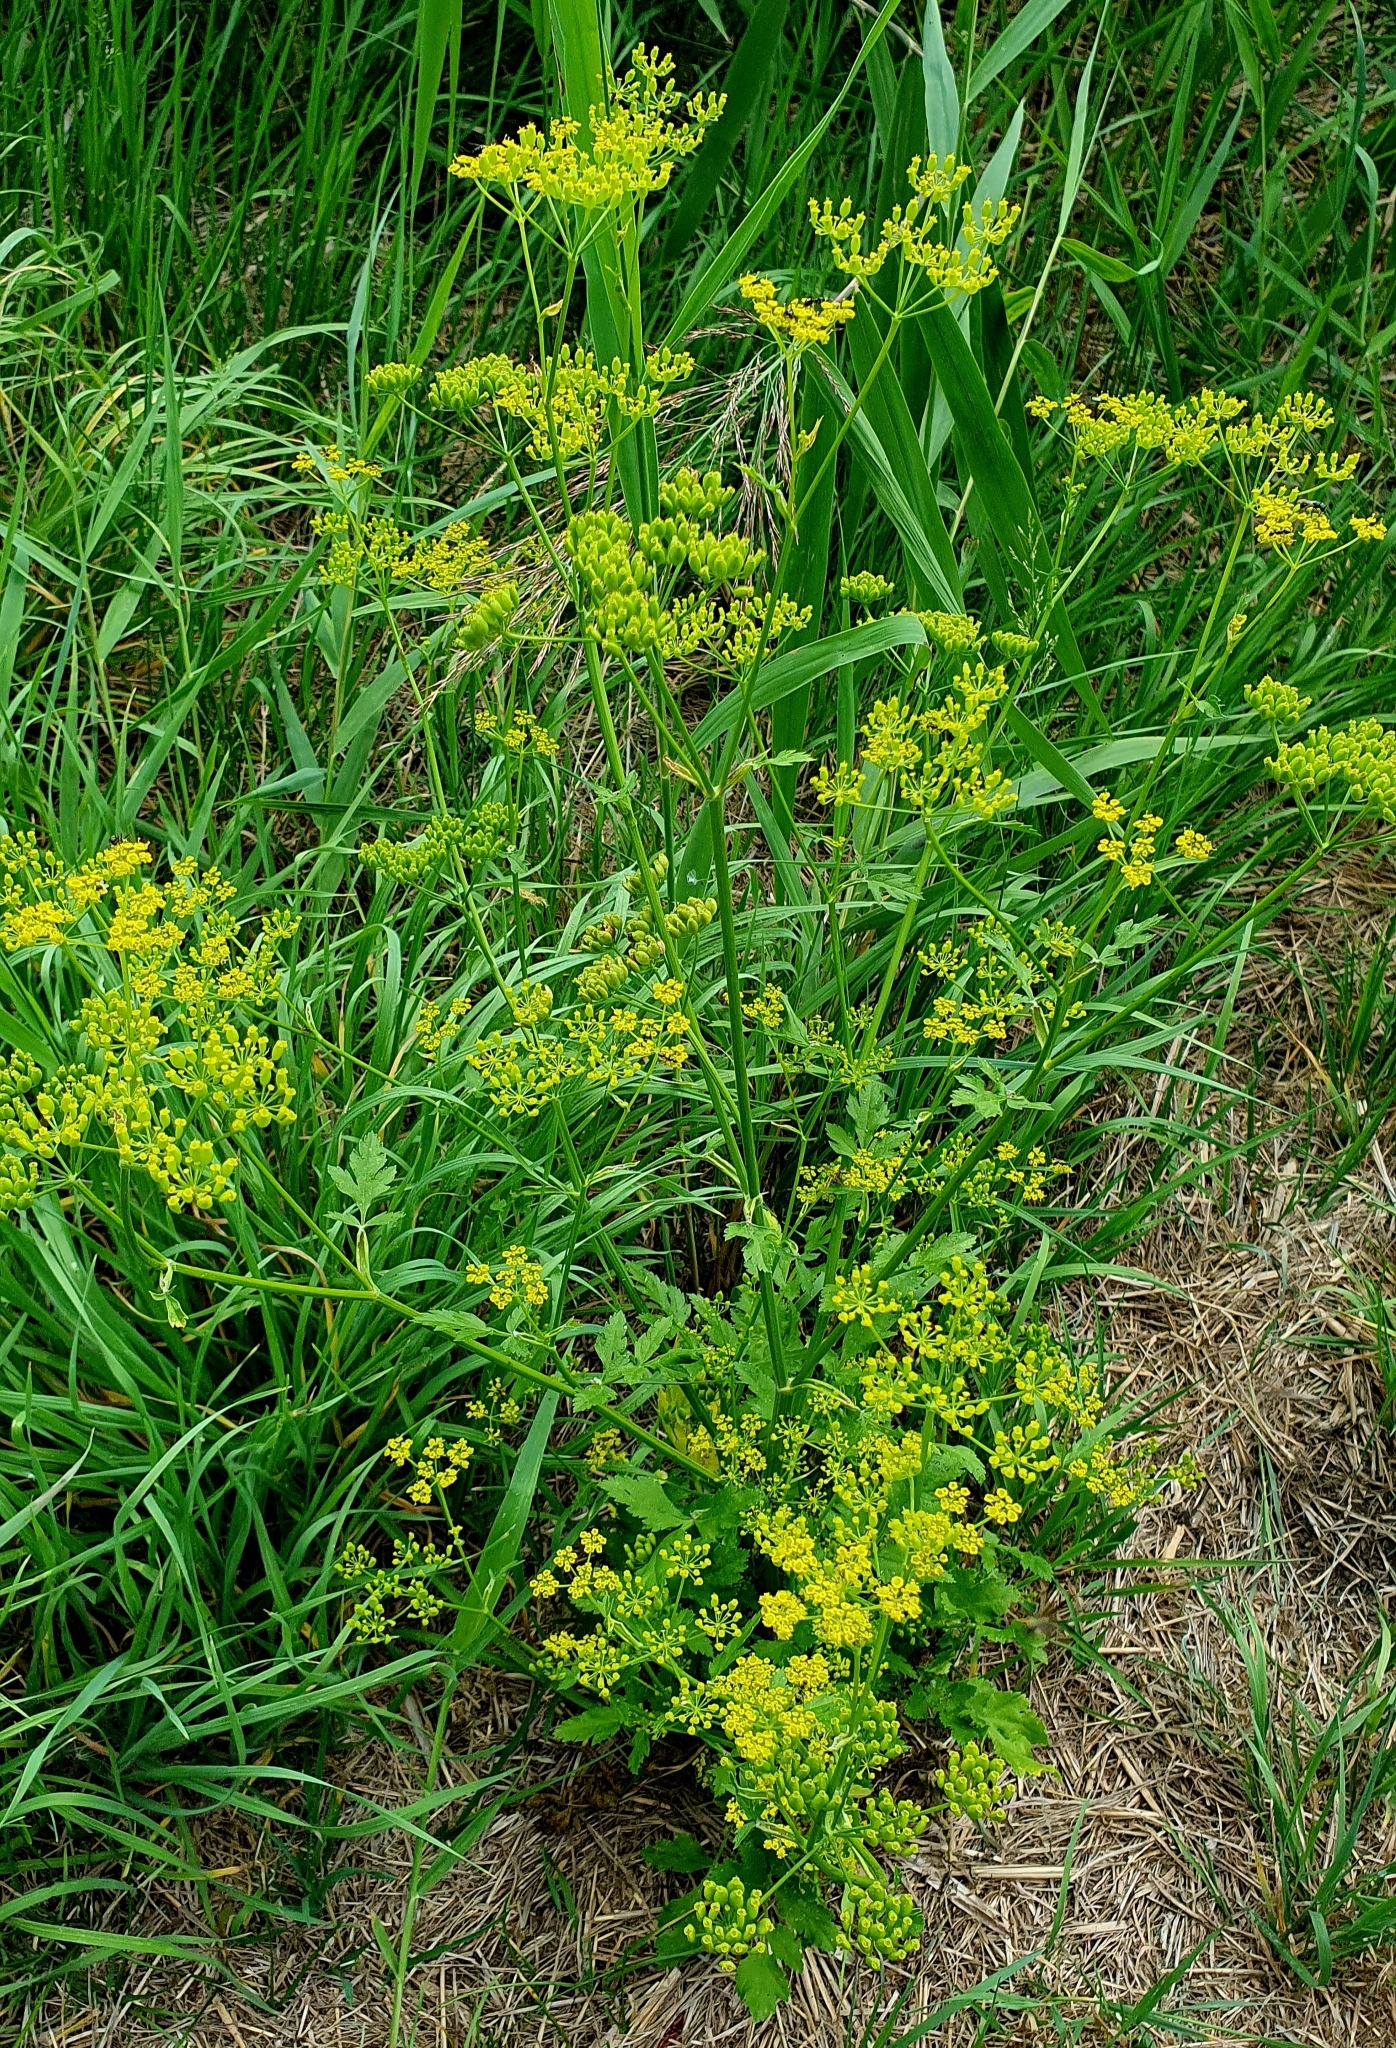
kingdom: Plantae
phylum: Tracheophyta
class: Magnoliopsida
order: Apiales
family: Apiaceae
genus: Pastinaca
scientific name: Pastinaca sativa
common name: Wild parsnip
